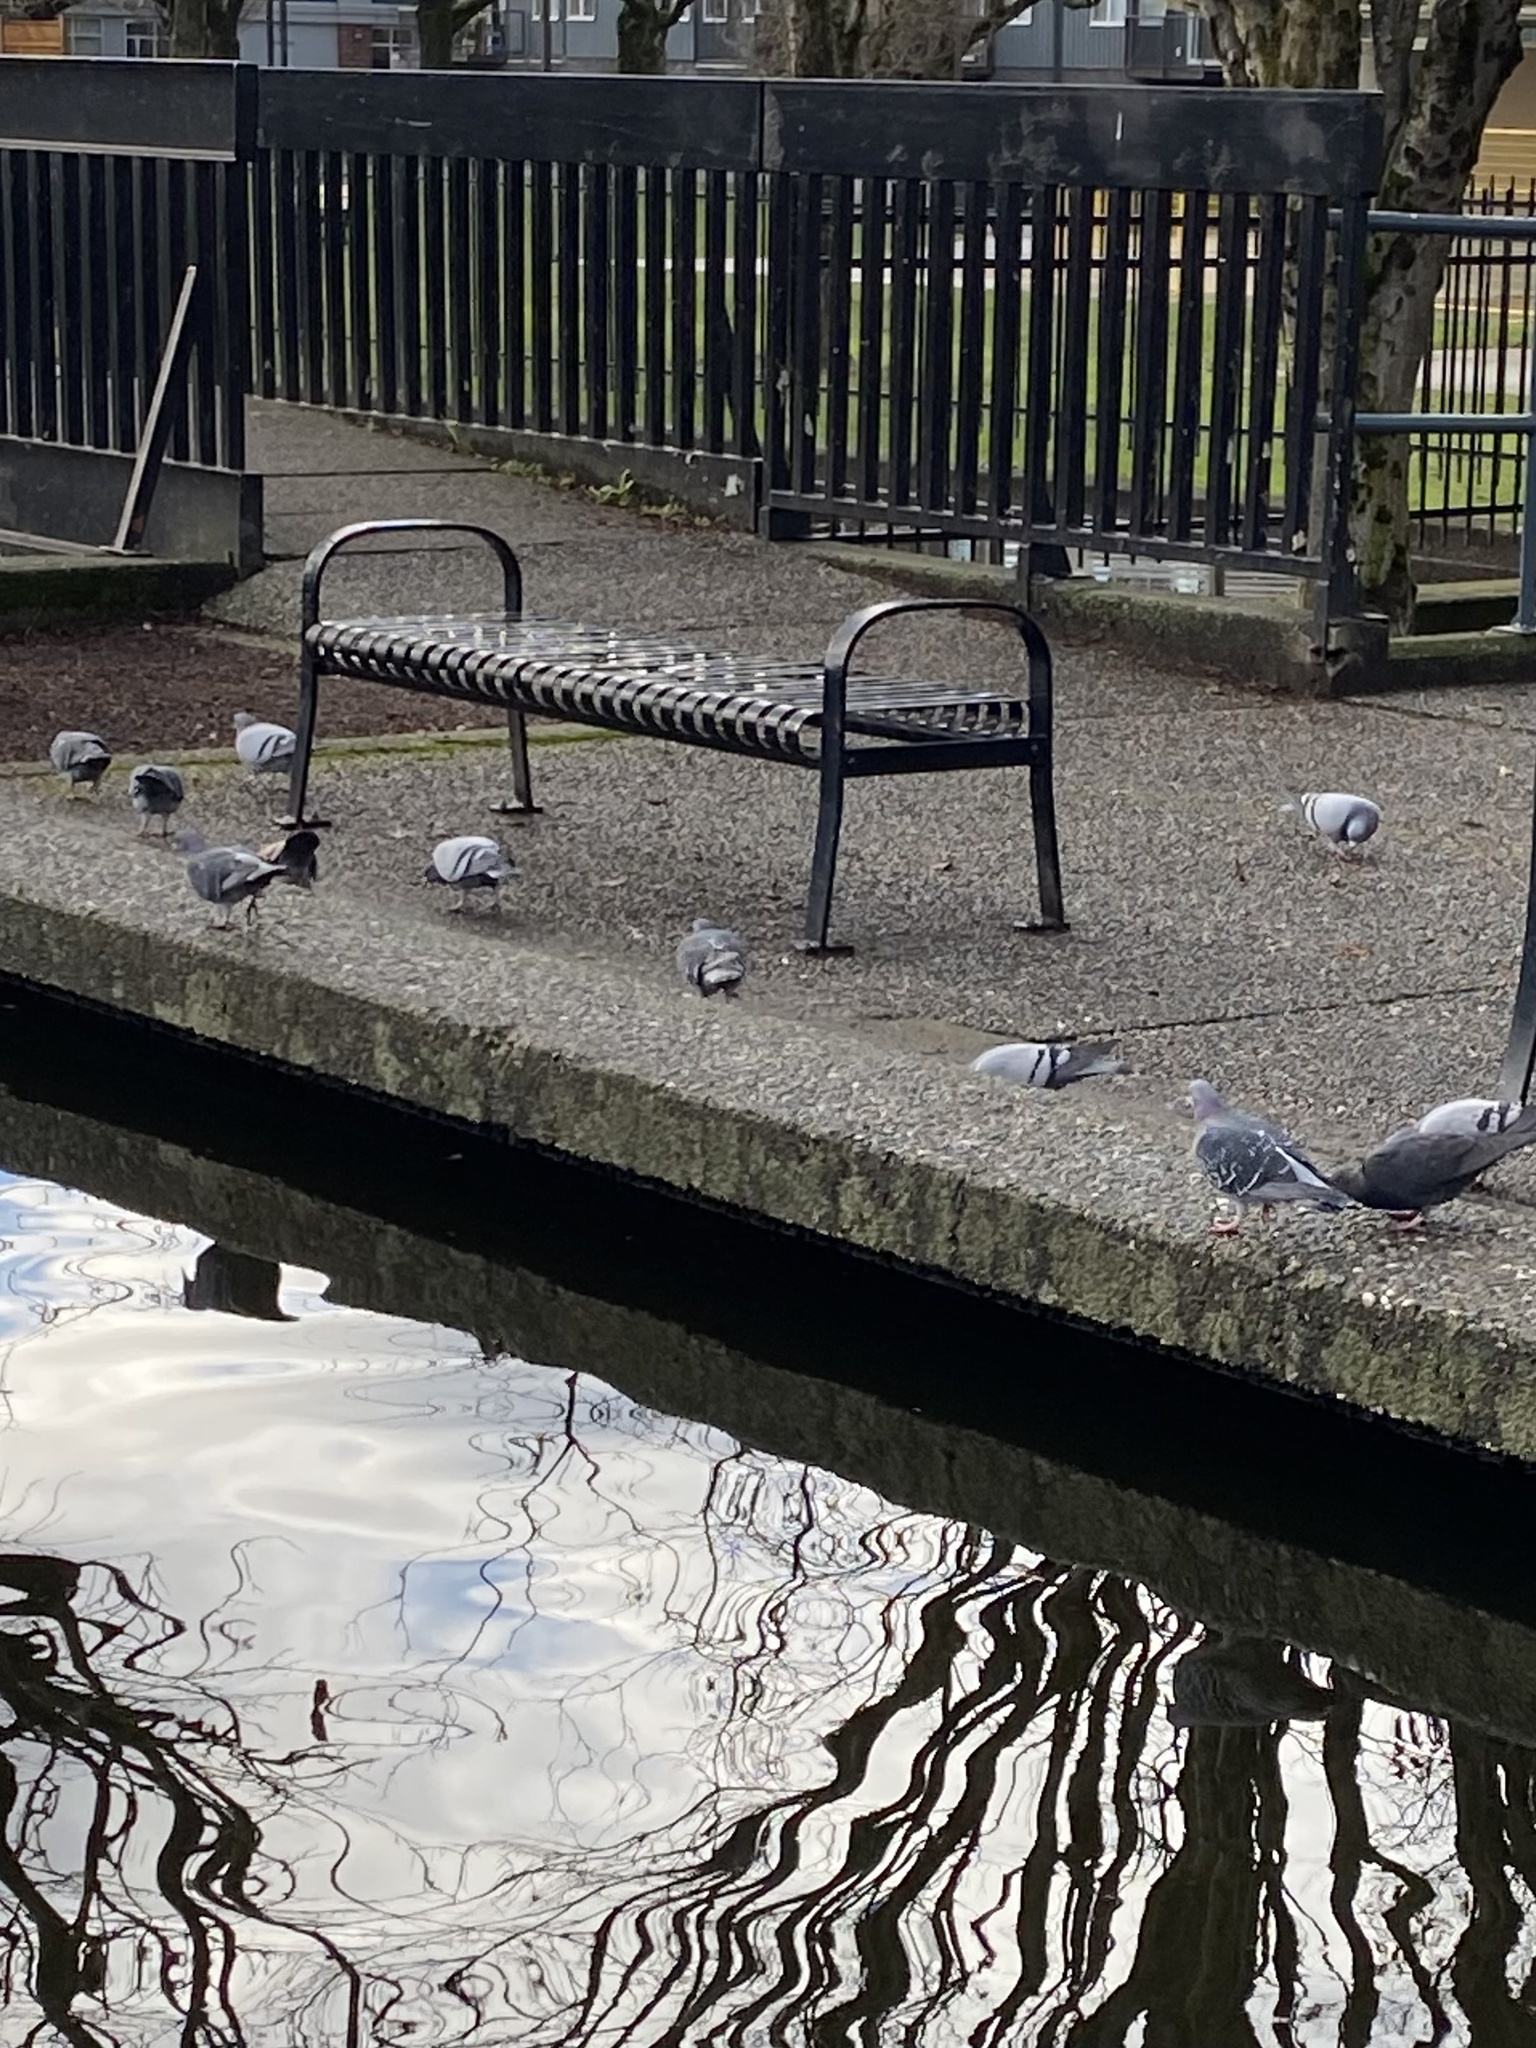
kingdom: Animalia
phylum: Chordata
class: Aves
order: Columbiformes
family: Columbidae
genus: Columba
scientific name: Columba livia
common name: Rock pigeon
